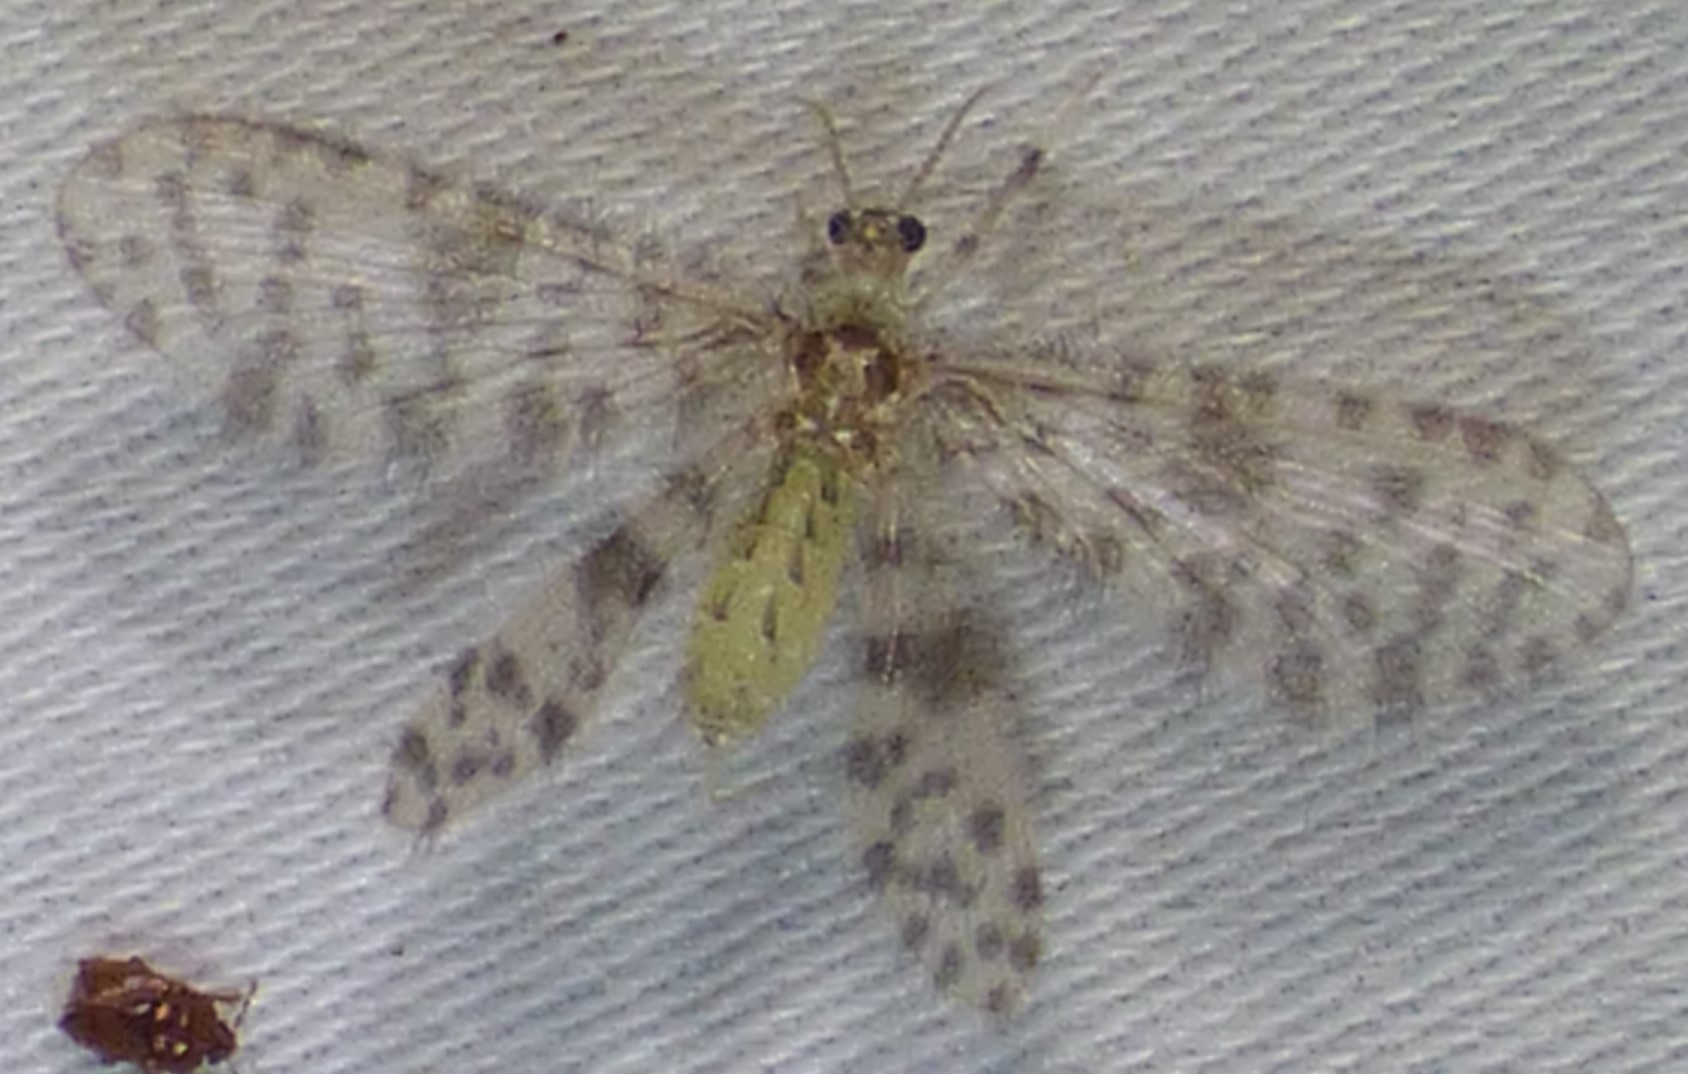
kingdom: Animalia
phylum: Arthropoda
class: Insecta
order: Neuroptera
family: Dilaridae
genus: Nallachius
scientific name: Nallachius americanus
